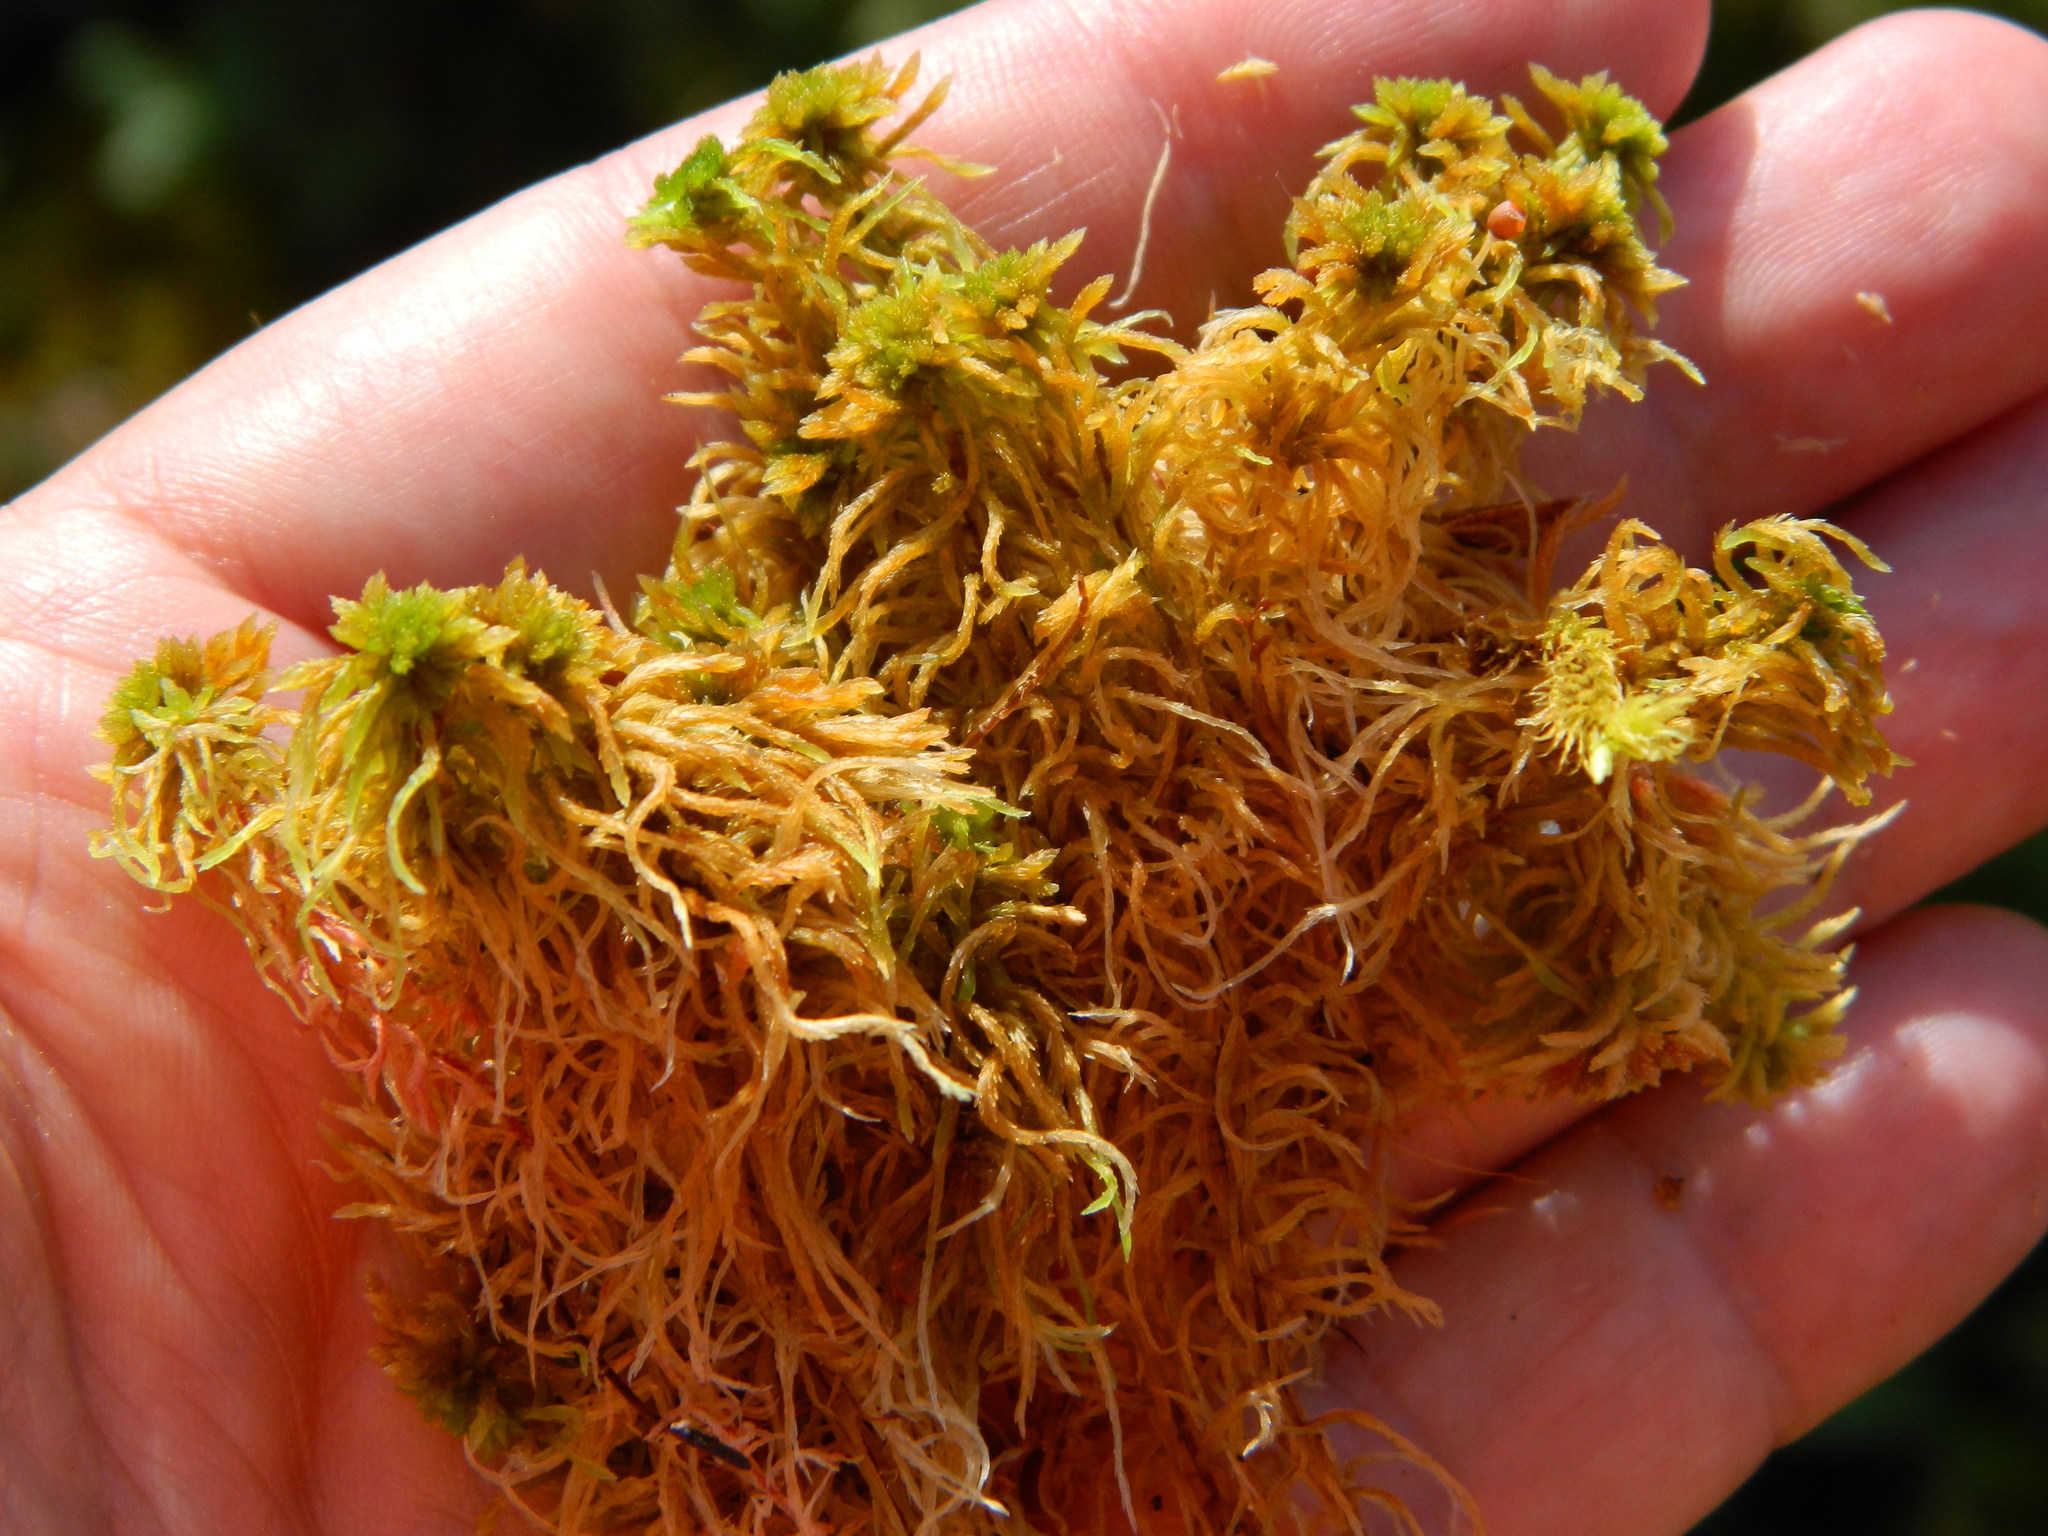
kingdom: Plantae
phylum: Bryophyta
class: Sphagnopsida
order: Sphagnales
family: Sphagnaceae
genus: Sphagnum
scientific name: Sphagnum fuscum
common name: Brown peat moss
